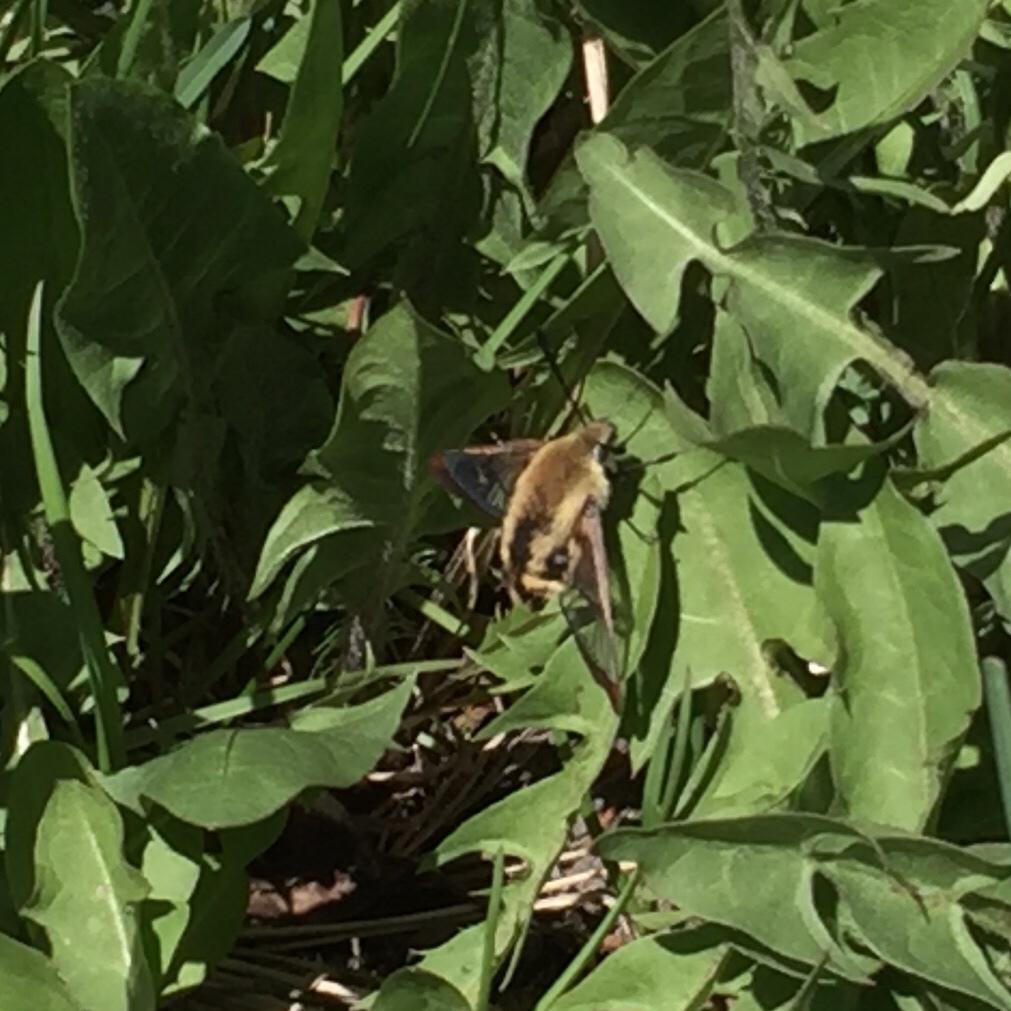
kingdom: Animalia
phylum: Arthropoda
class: Insecta
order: Lepidoptera
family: Sphingidae
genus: Hemaris
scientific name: Hemaris diffinis
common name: Bumblebee moth
